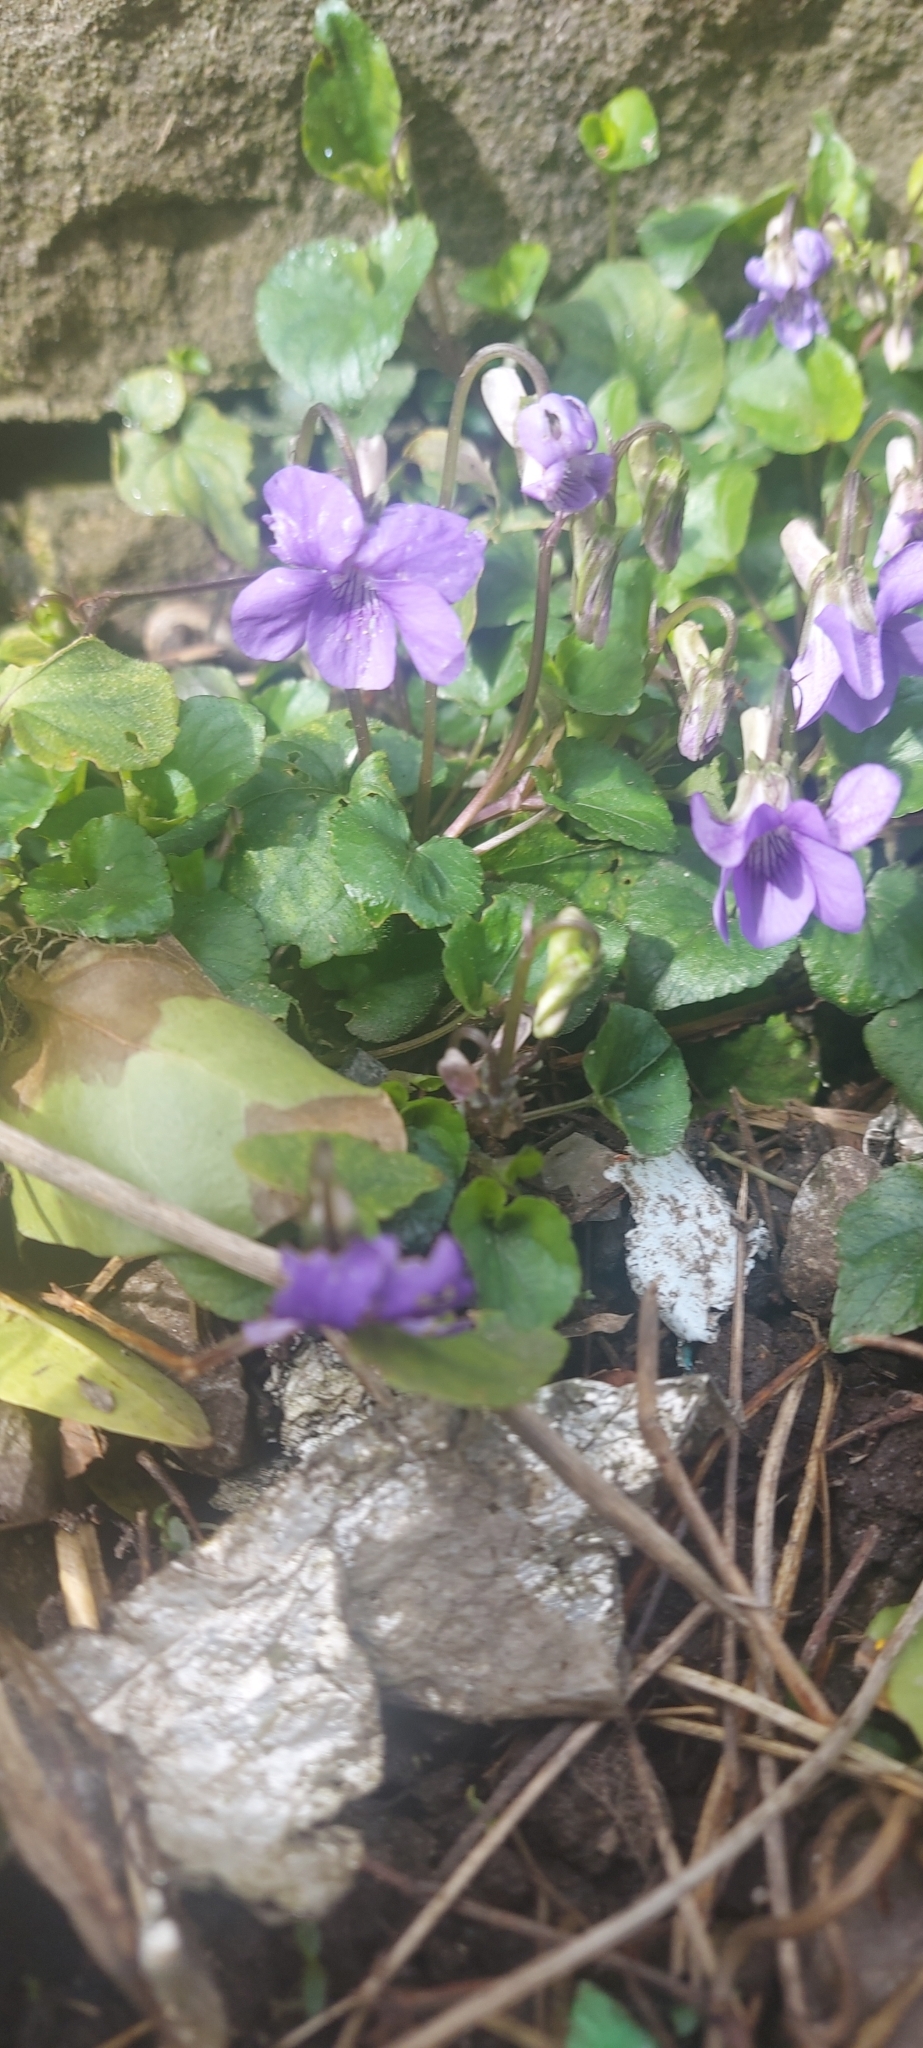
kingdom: Plantae
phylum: Tracheophyta
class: Magnoliopsida
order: Malpighiales
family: Violaceae
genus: Viola
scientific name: Viola riviniana
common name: Common dog-violet
